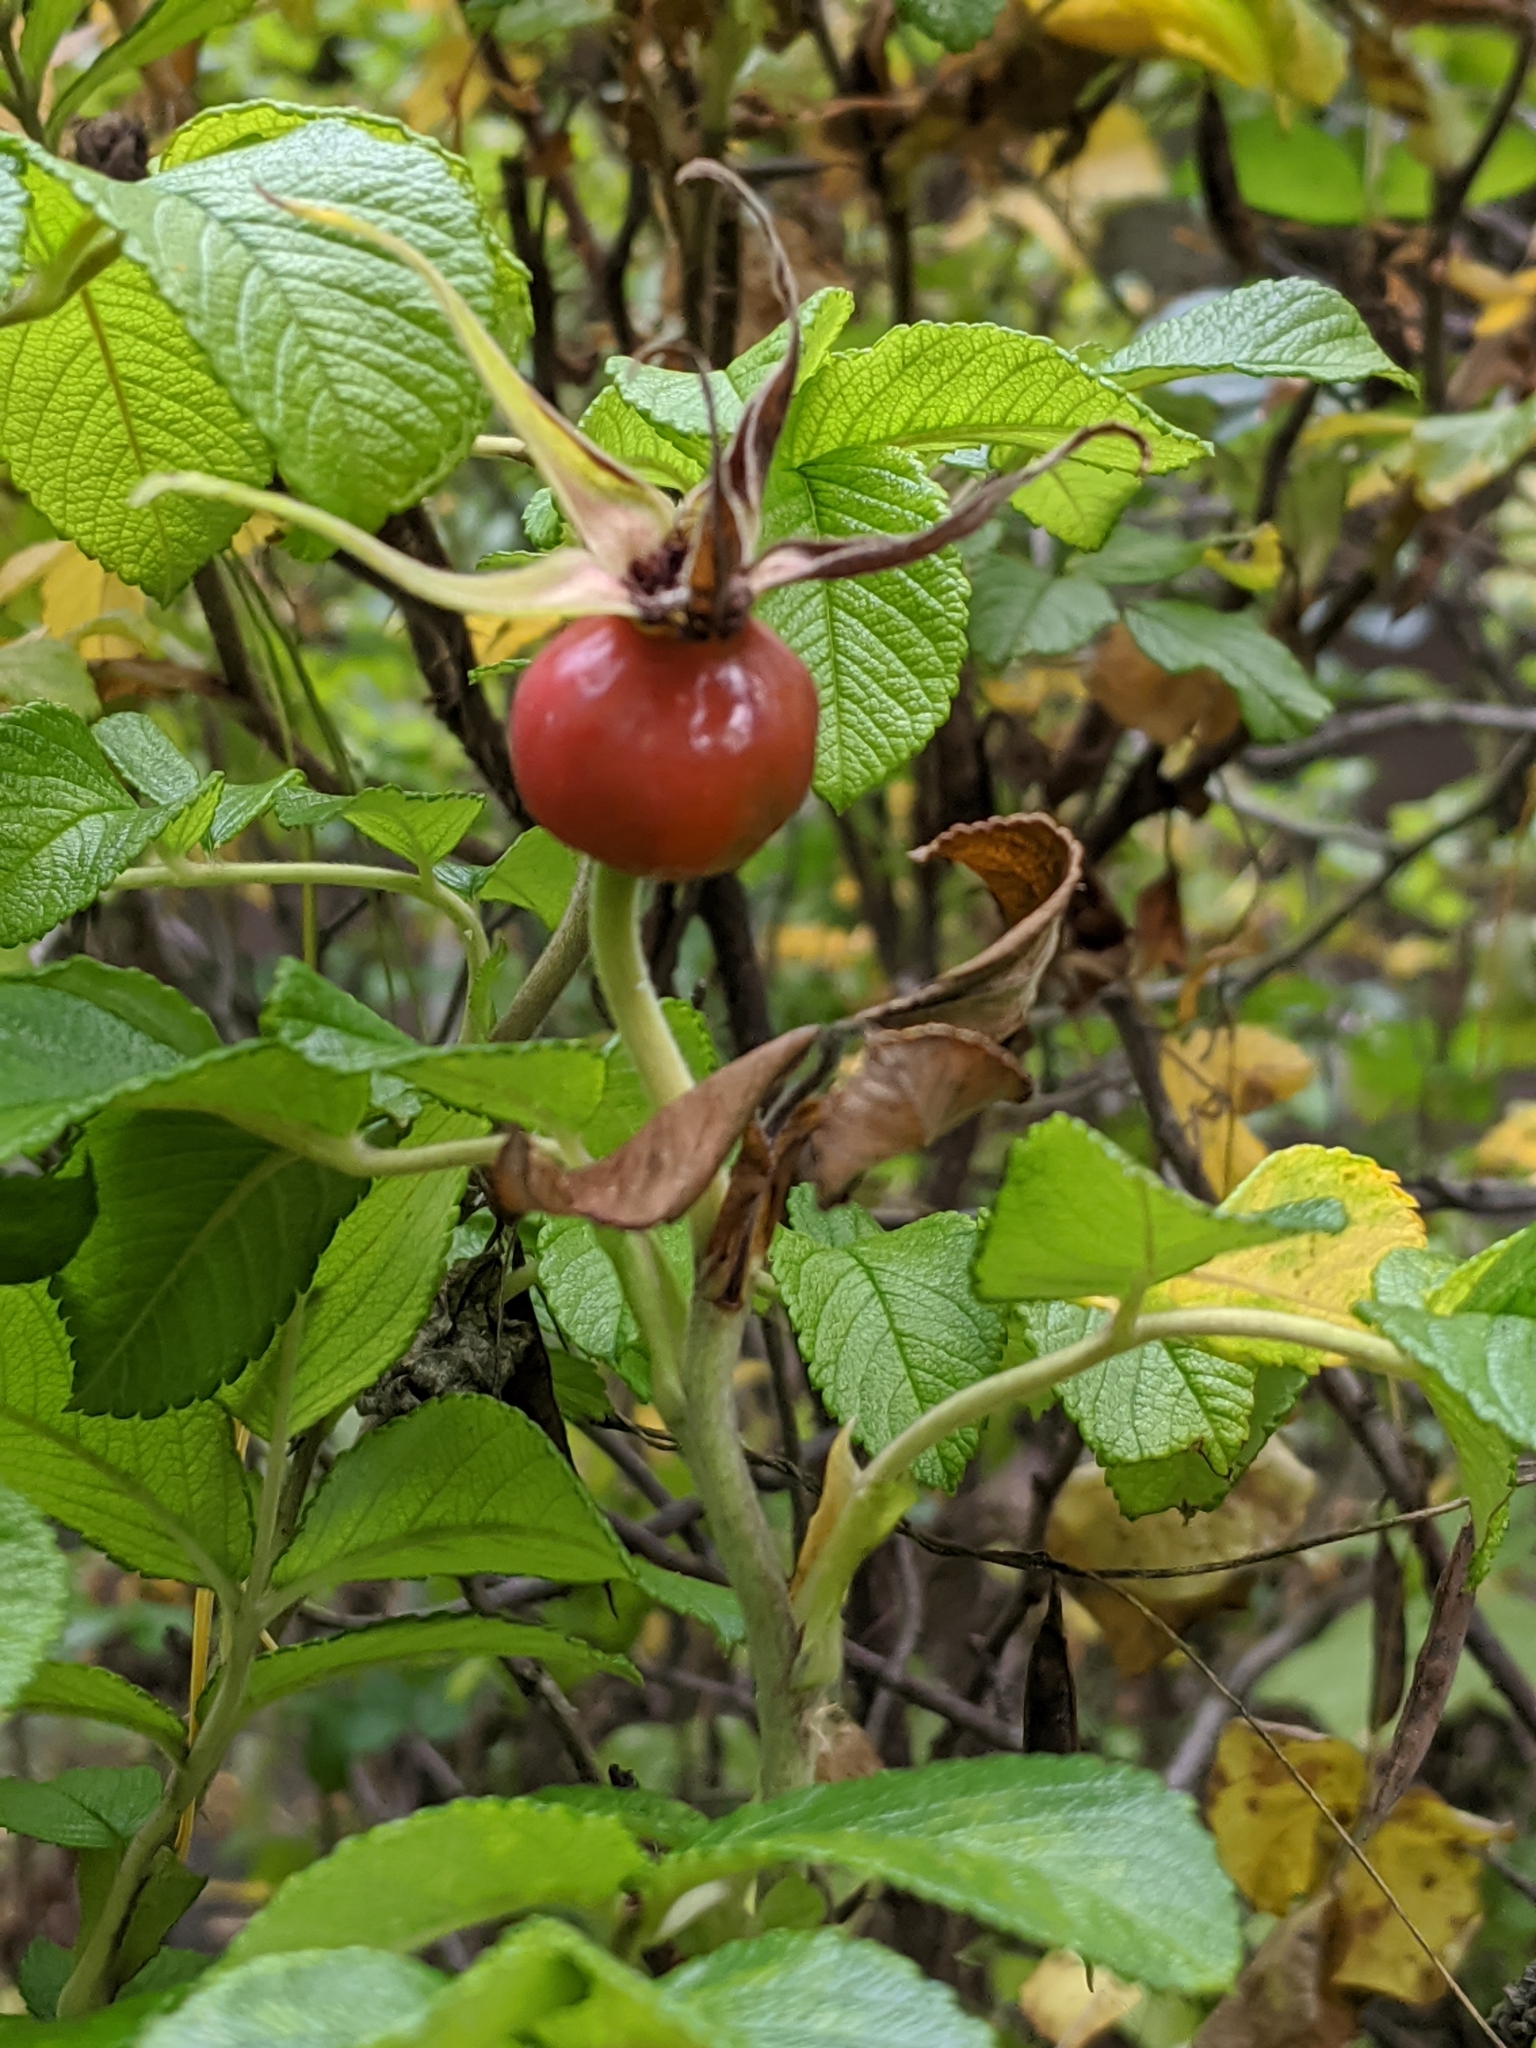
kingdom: Plantae
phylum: Tracheophyta
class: Magnoliopsida
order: Rosales
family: Rosaceae
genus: Rosa
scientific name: Rosa rugosa
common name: Japanese rose
